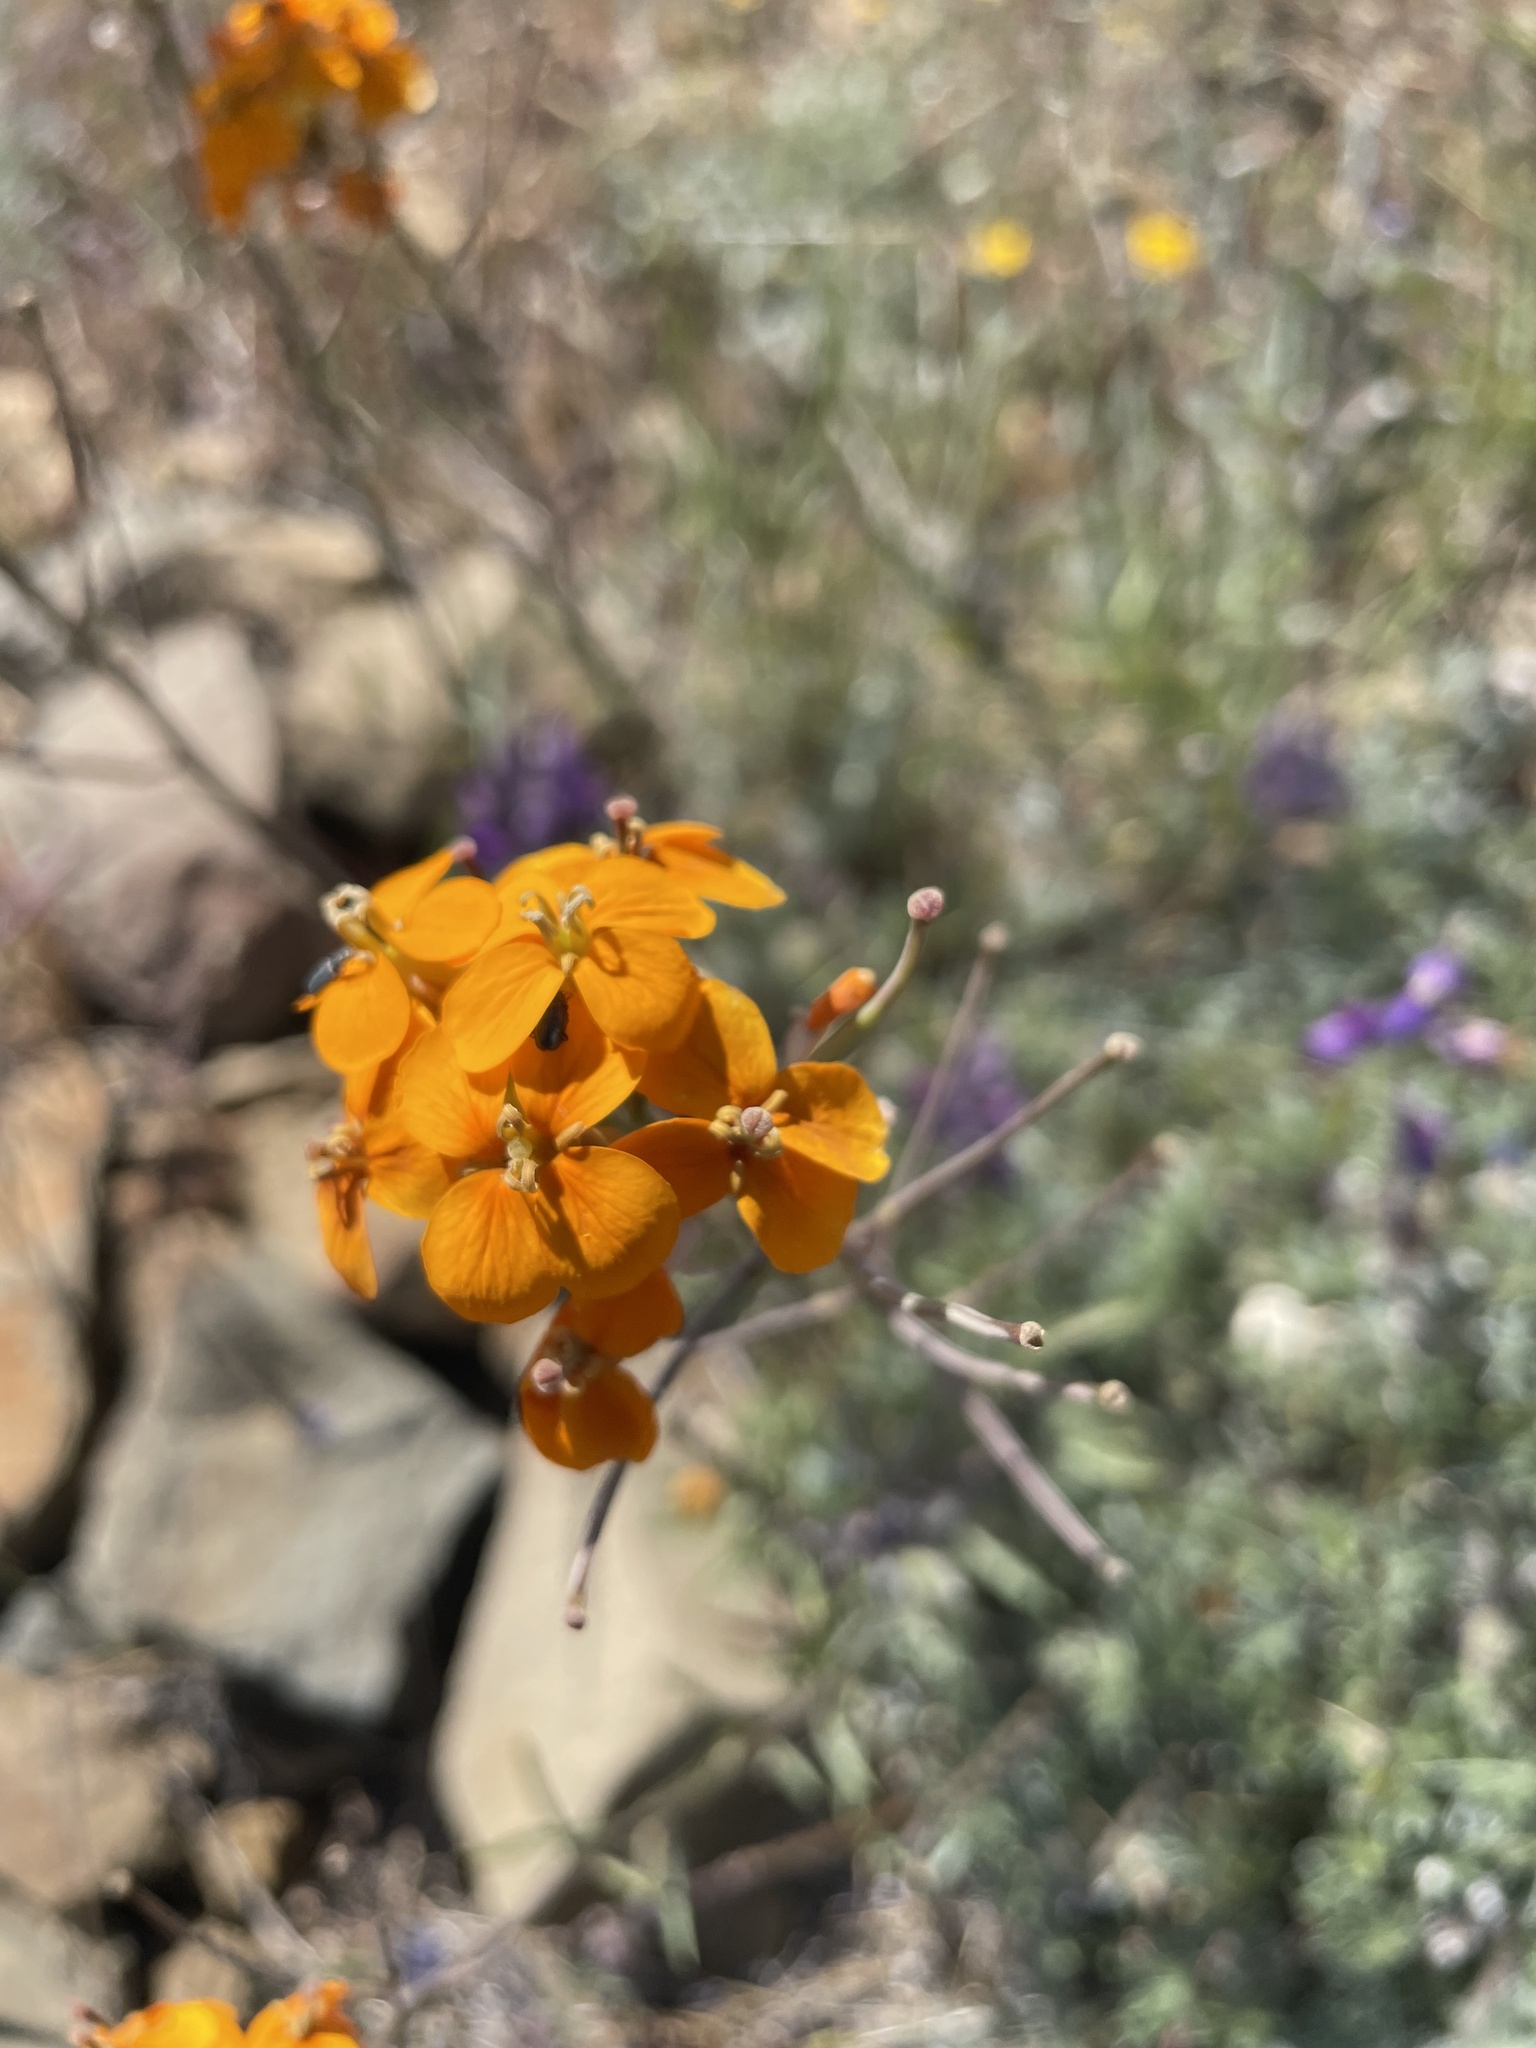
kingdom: Plantae
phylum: Tracheophyta
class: Magnoliopsida
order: Brassicales
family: Brassicaceae
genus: Erysimum
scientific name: Erysimum capitatum
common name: Western wallflower
